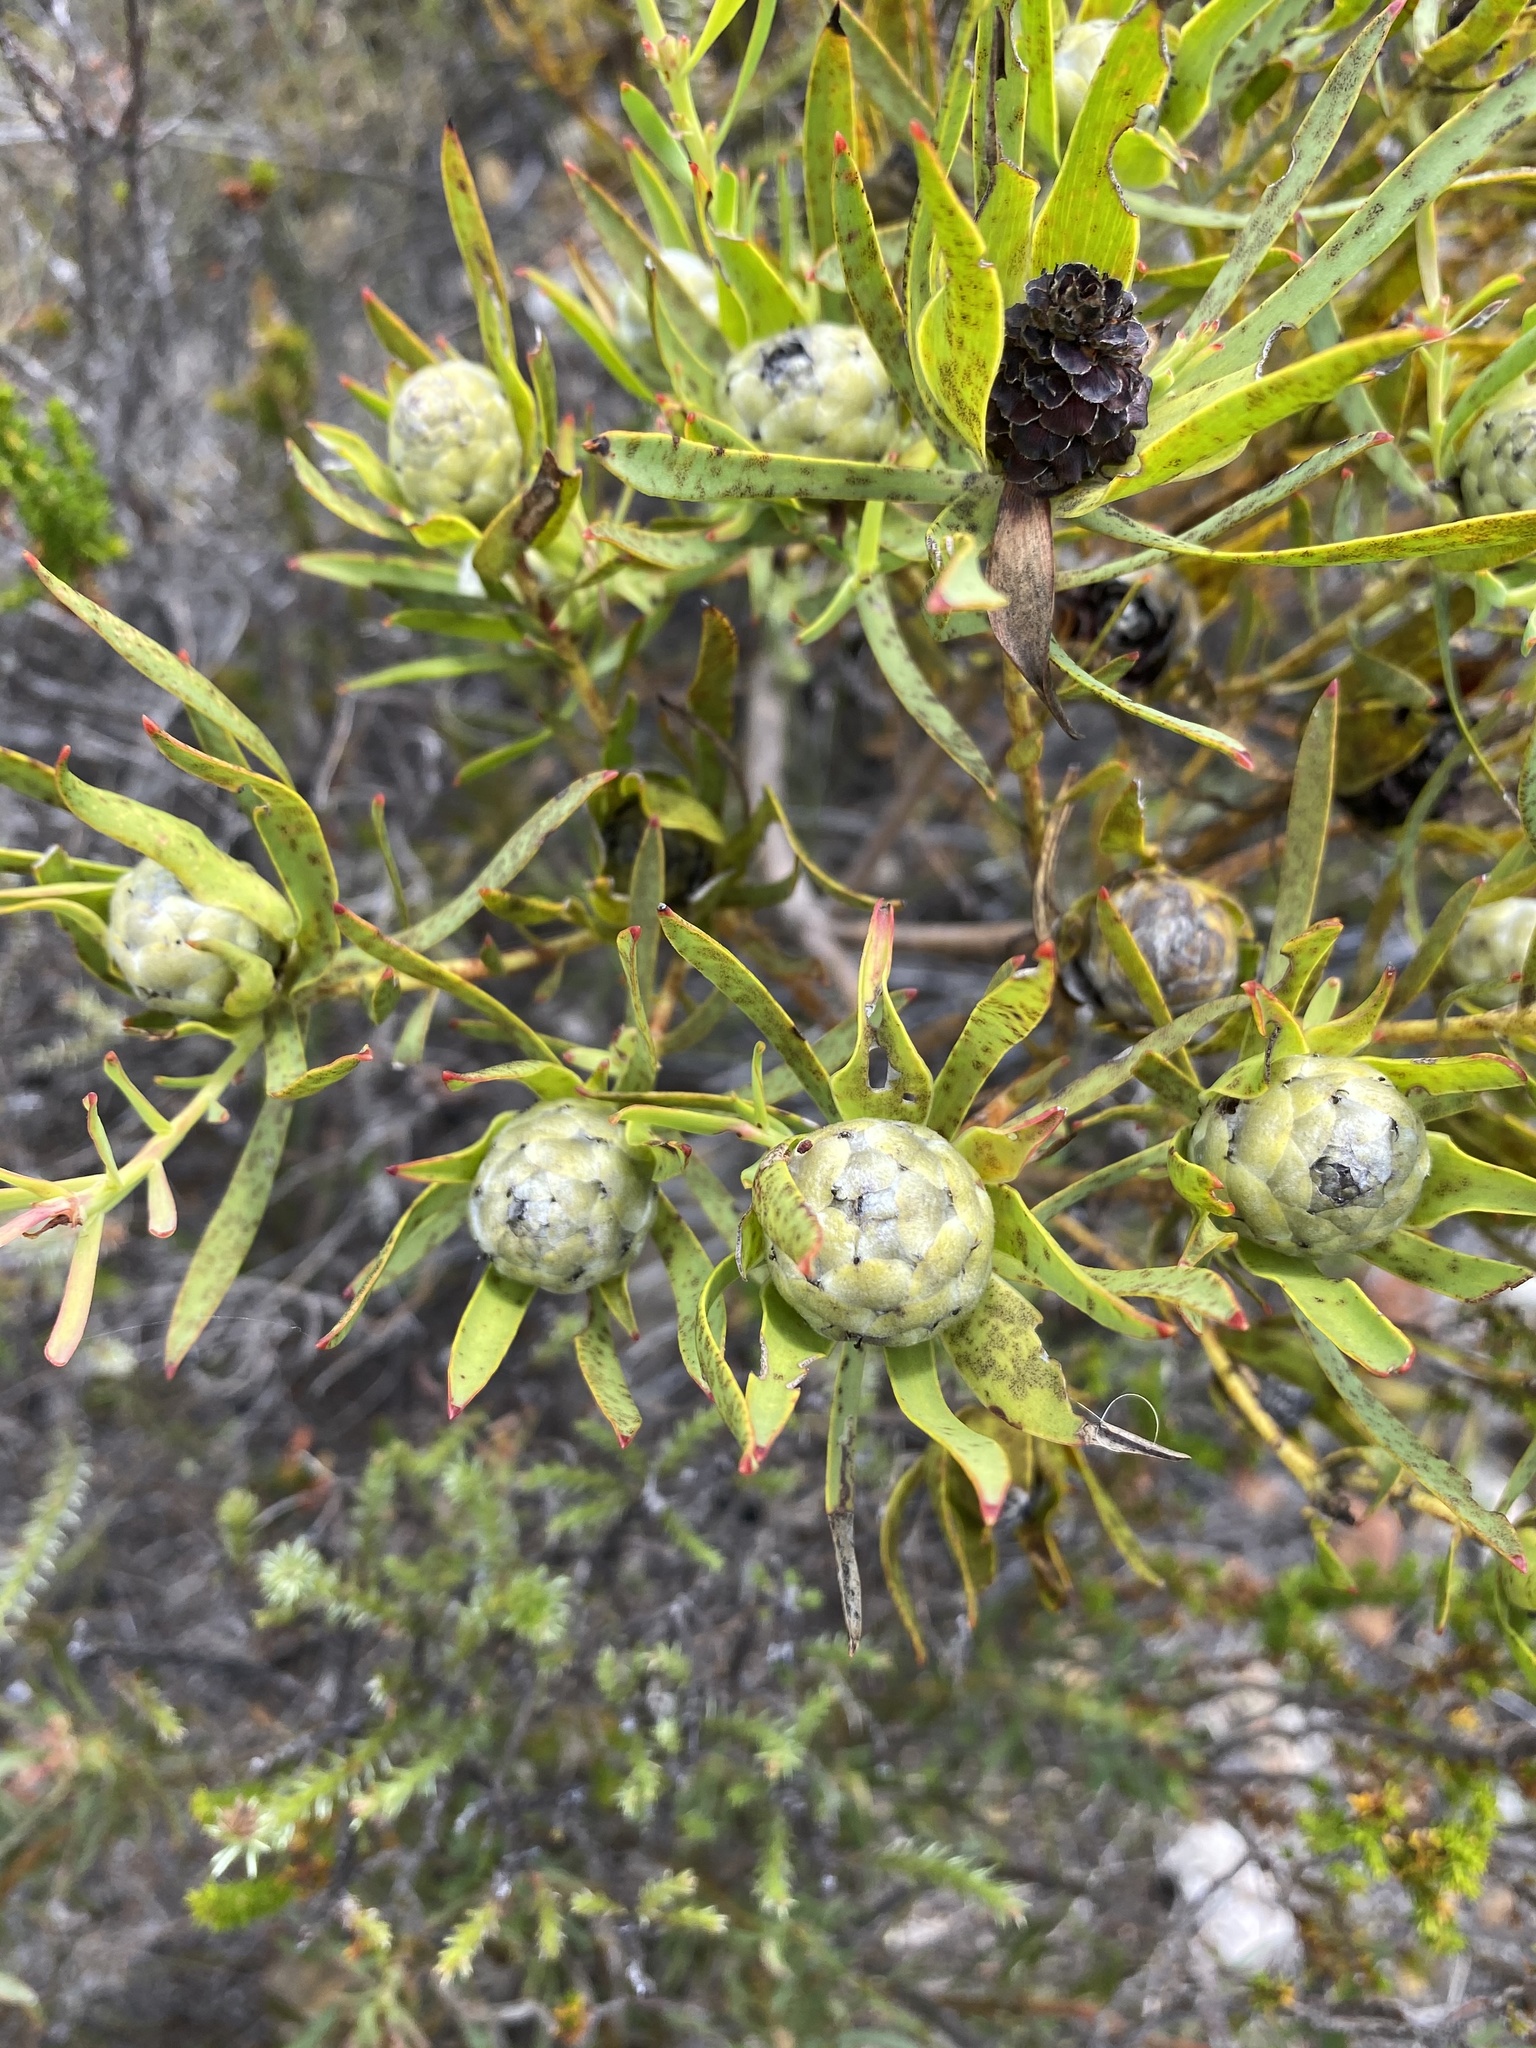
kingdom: Plantae
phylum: Tracheophyta
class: Magnoliopsida
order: Proteales
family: Proteaceae
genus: Leucospermum
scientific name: Leucospermum truncatulum
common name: Oval-leaf pincushion
